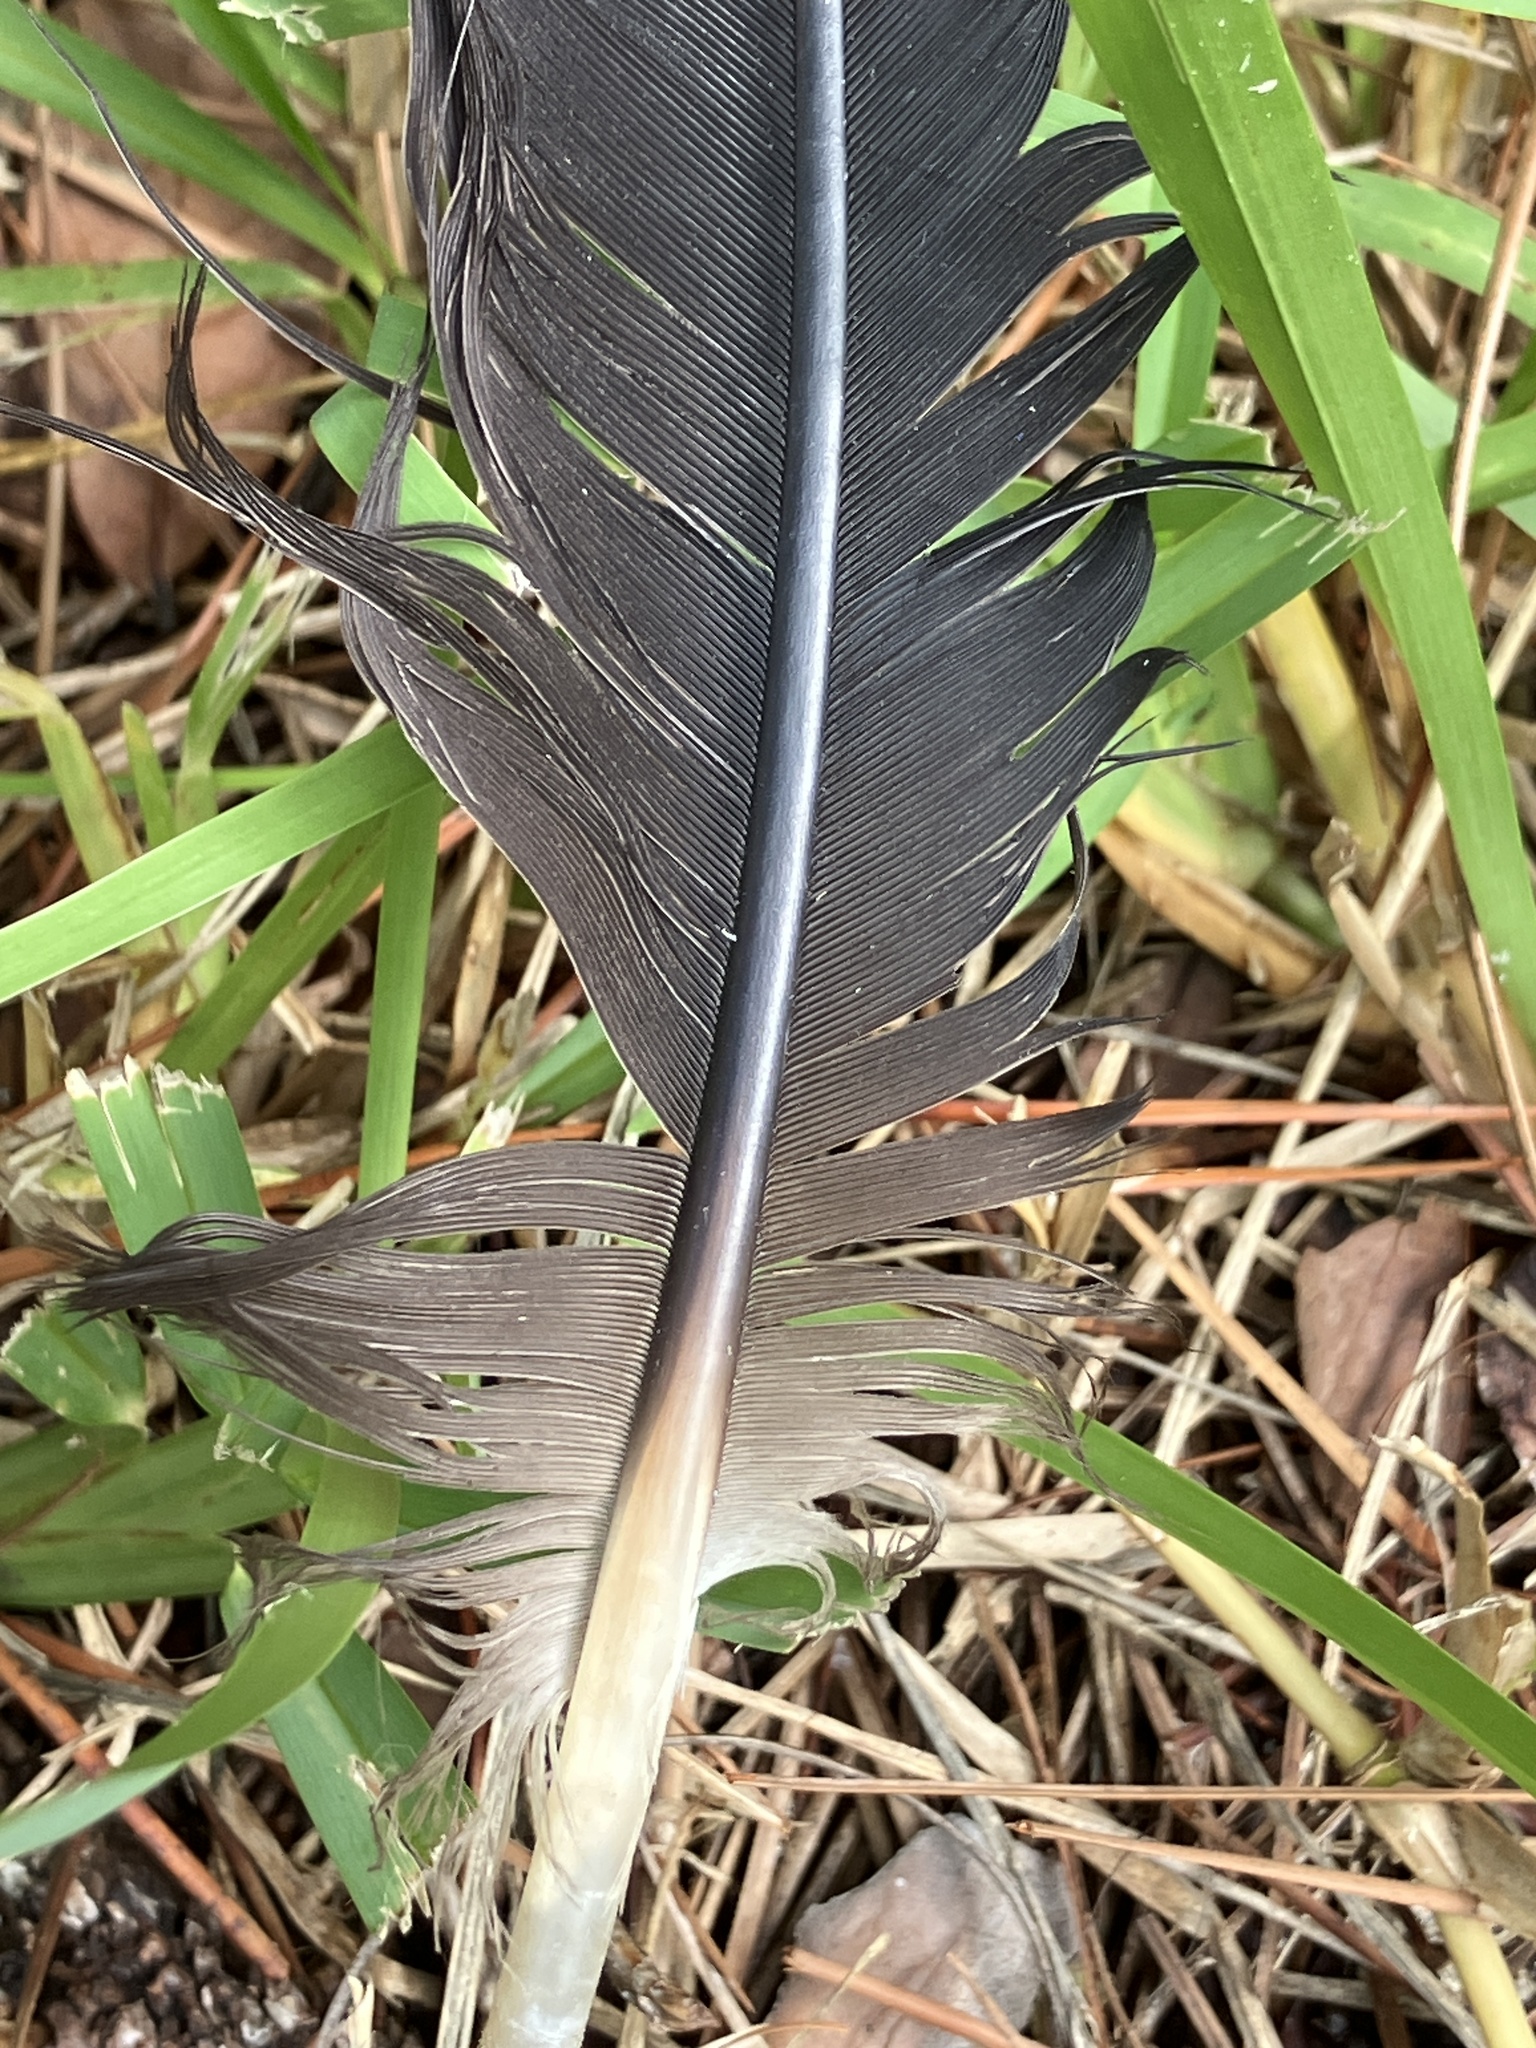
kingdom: Animalia
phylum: Chordata
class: Aves
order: Accipitriformes
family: Cathartidae
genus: Coragyps
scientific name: Coragyps atratus
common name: Black vulture
